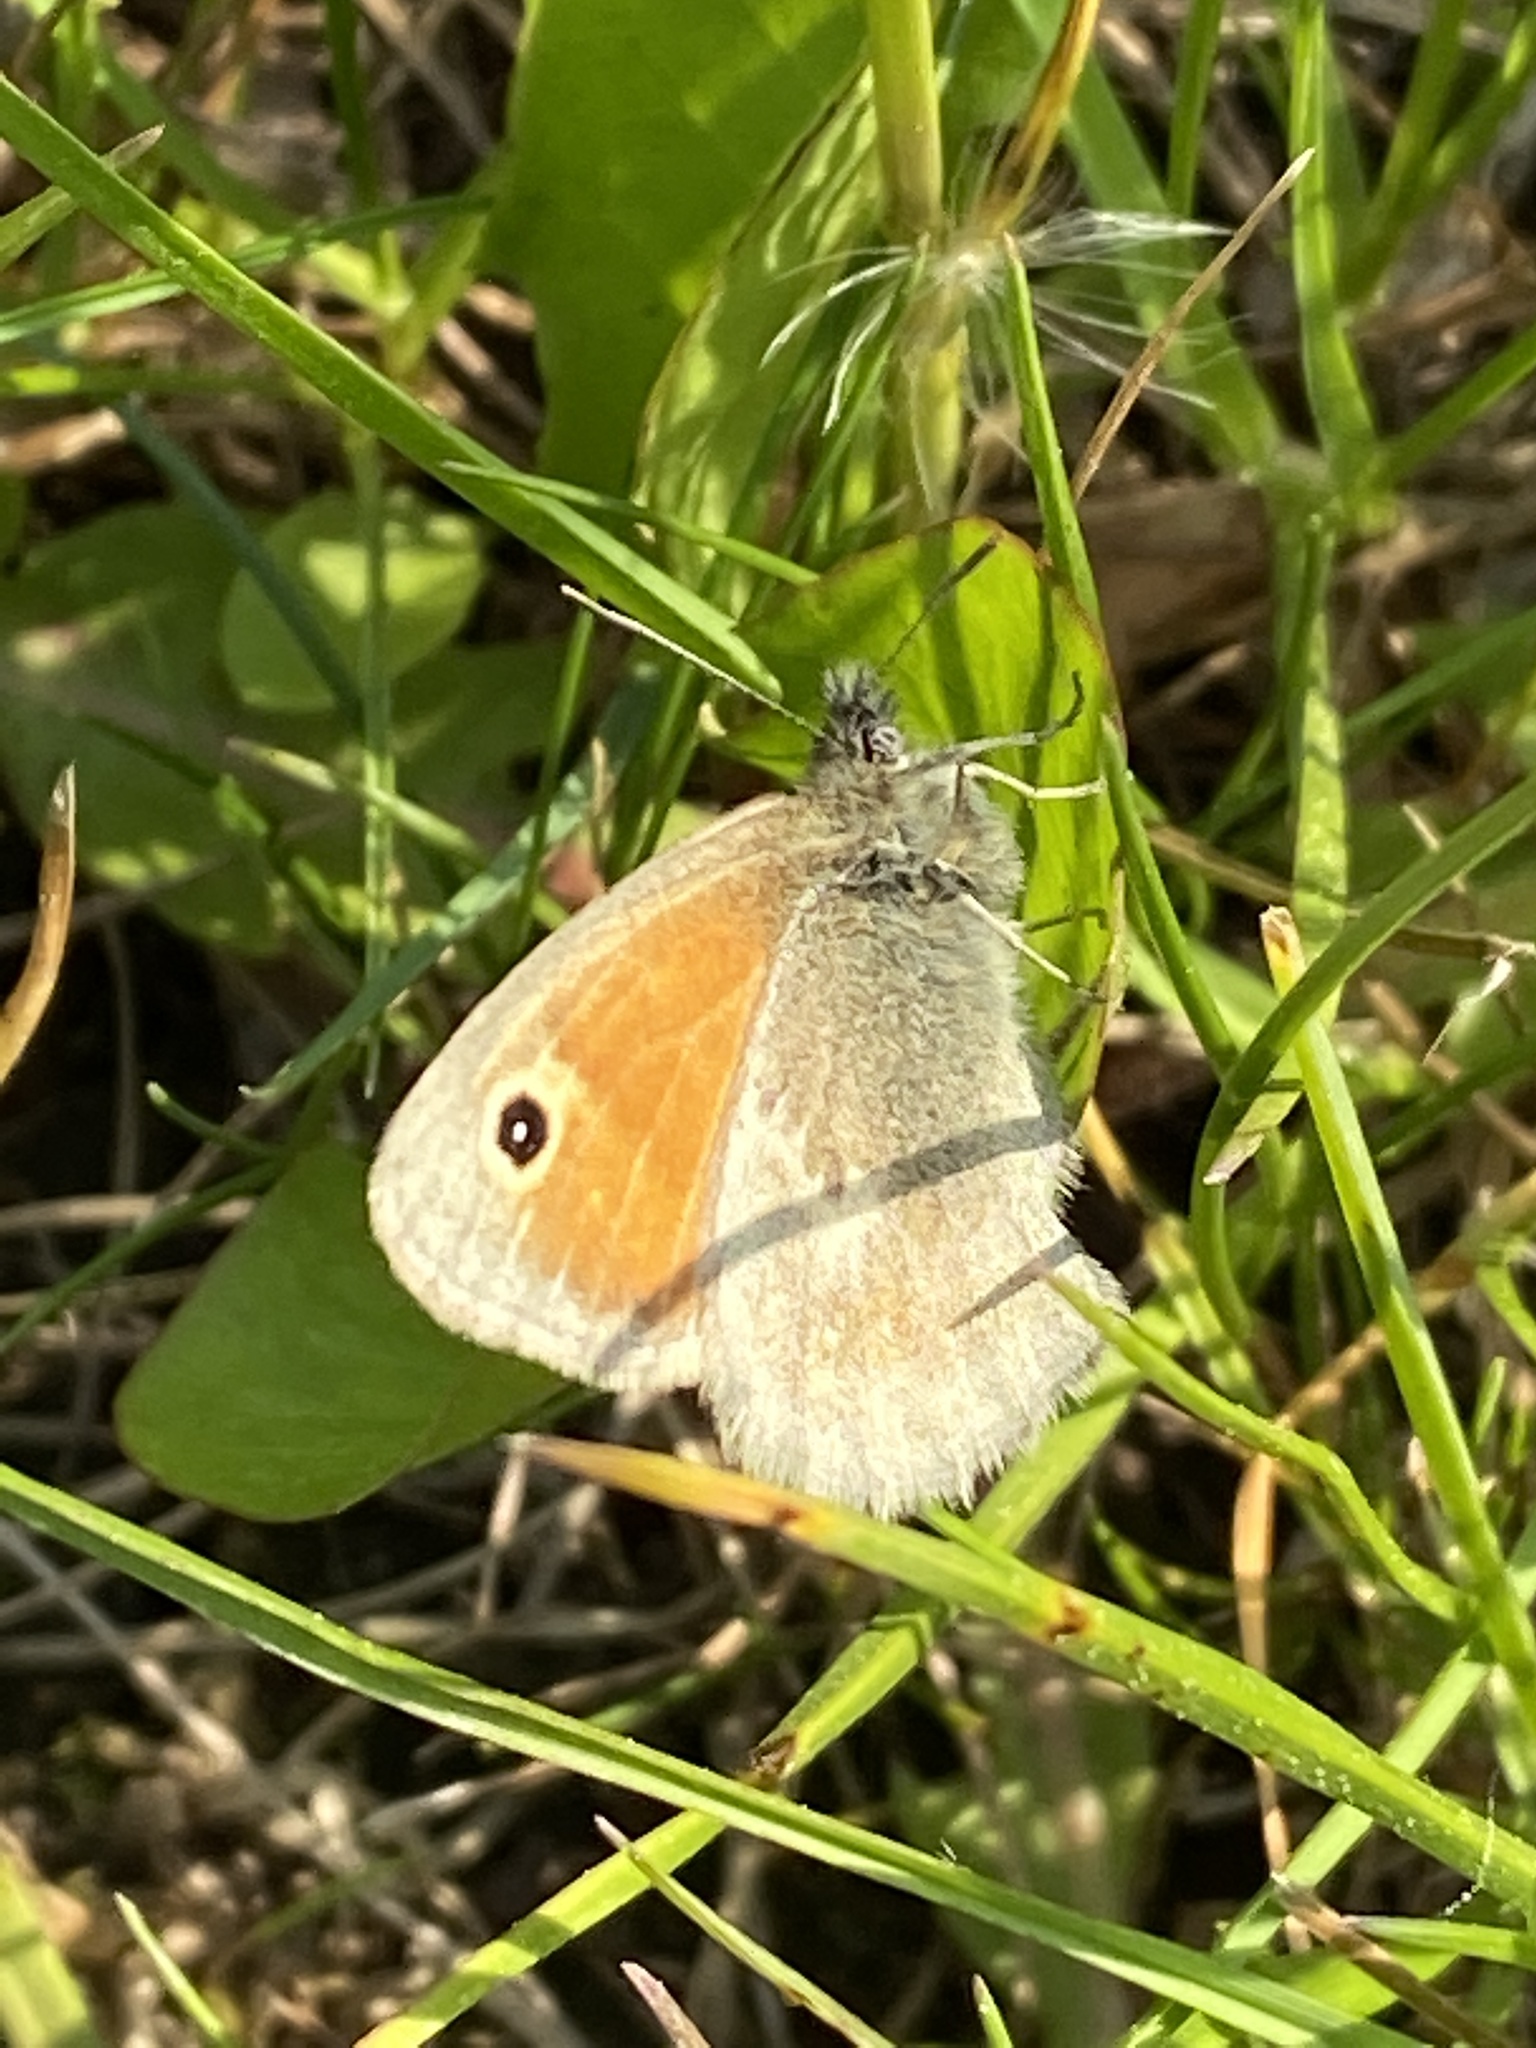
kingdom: Animalia
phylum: Arthropoda
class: Insecta
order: Lepidoptera
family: Nymphalidae
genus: Coenonympha
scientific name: Coenonympha pamphilus
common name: Small heath
